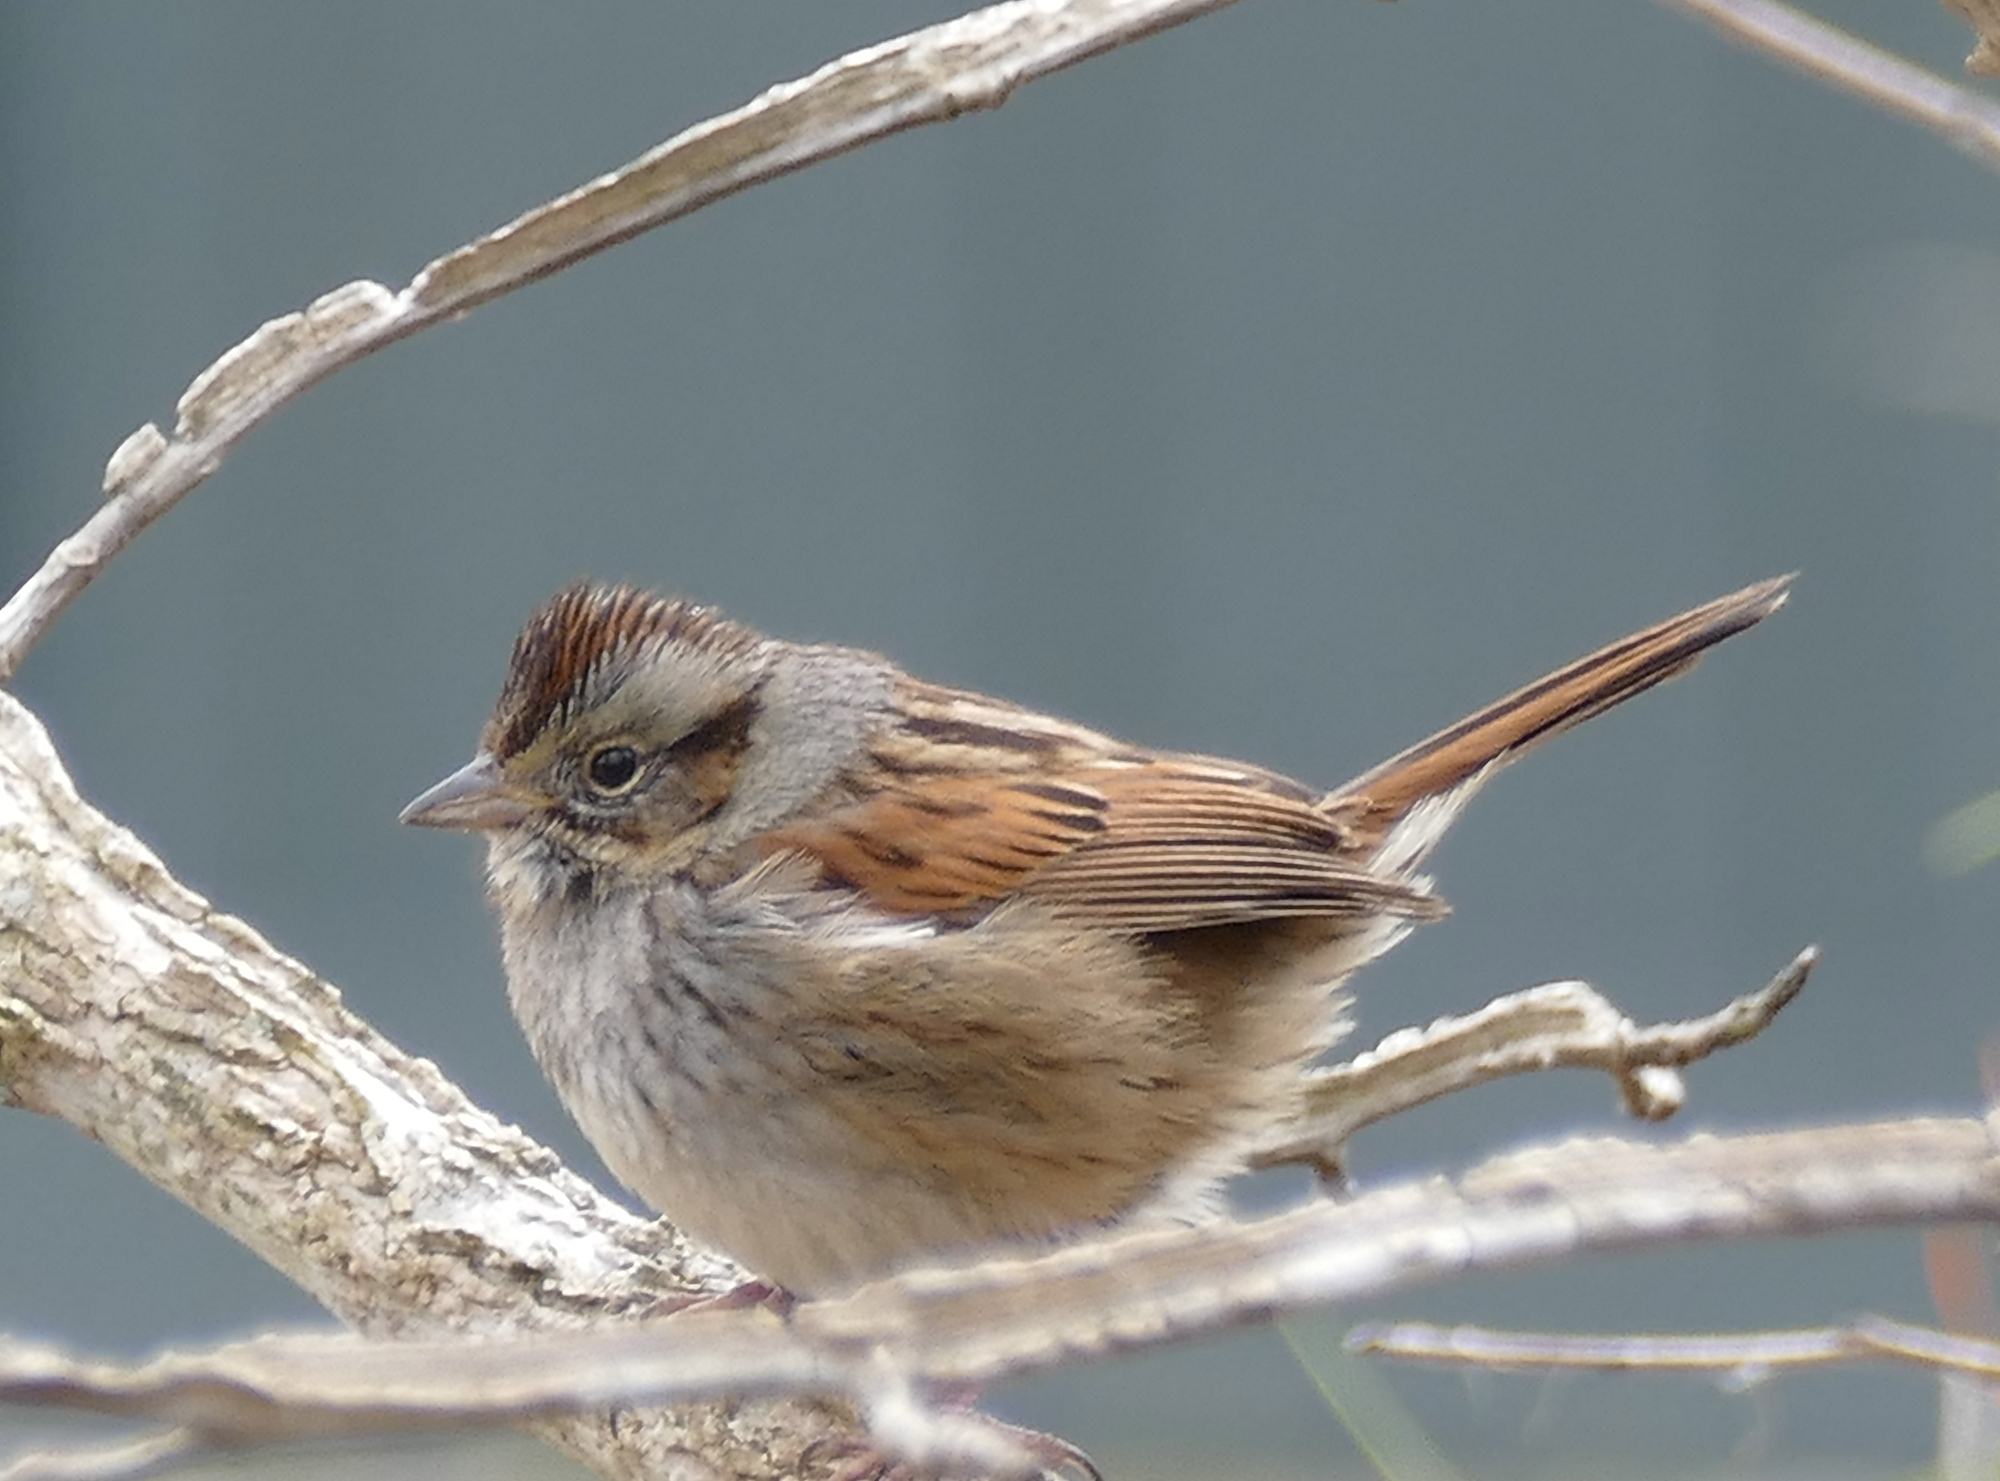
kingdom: Animalia
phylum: Chordata
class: Aves
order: Passeriformes
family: Passerellidae
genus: Melospiza
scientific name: Melospiza georgiana
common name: Swamp sparrow
